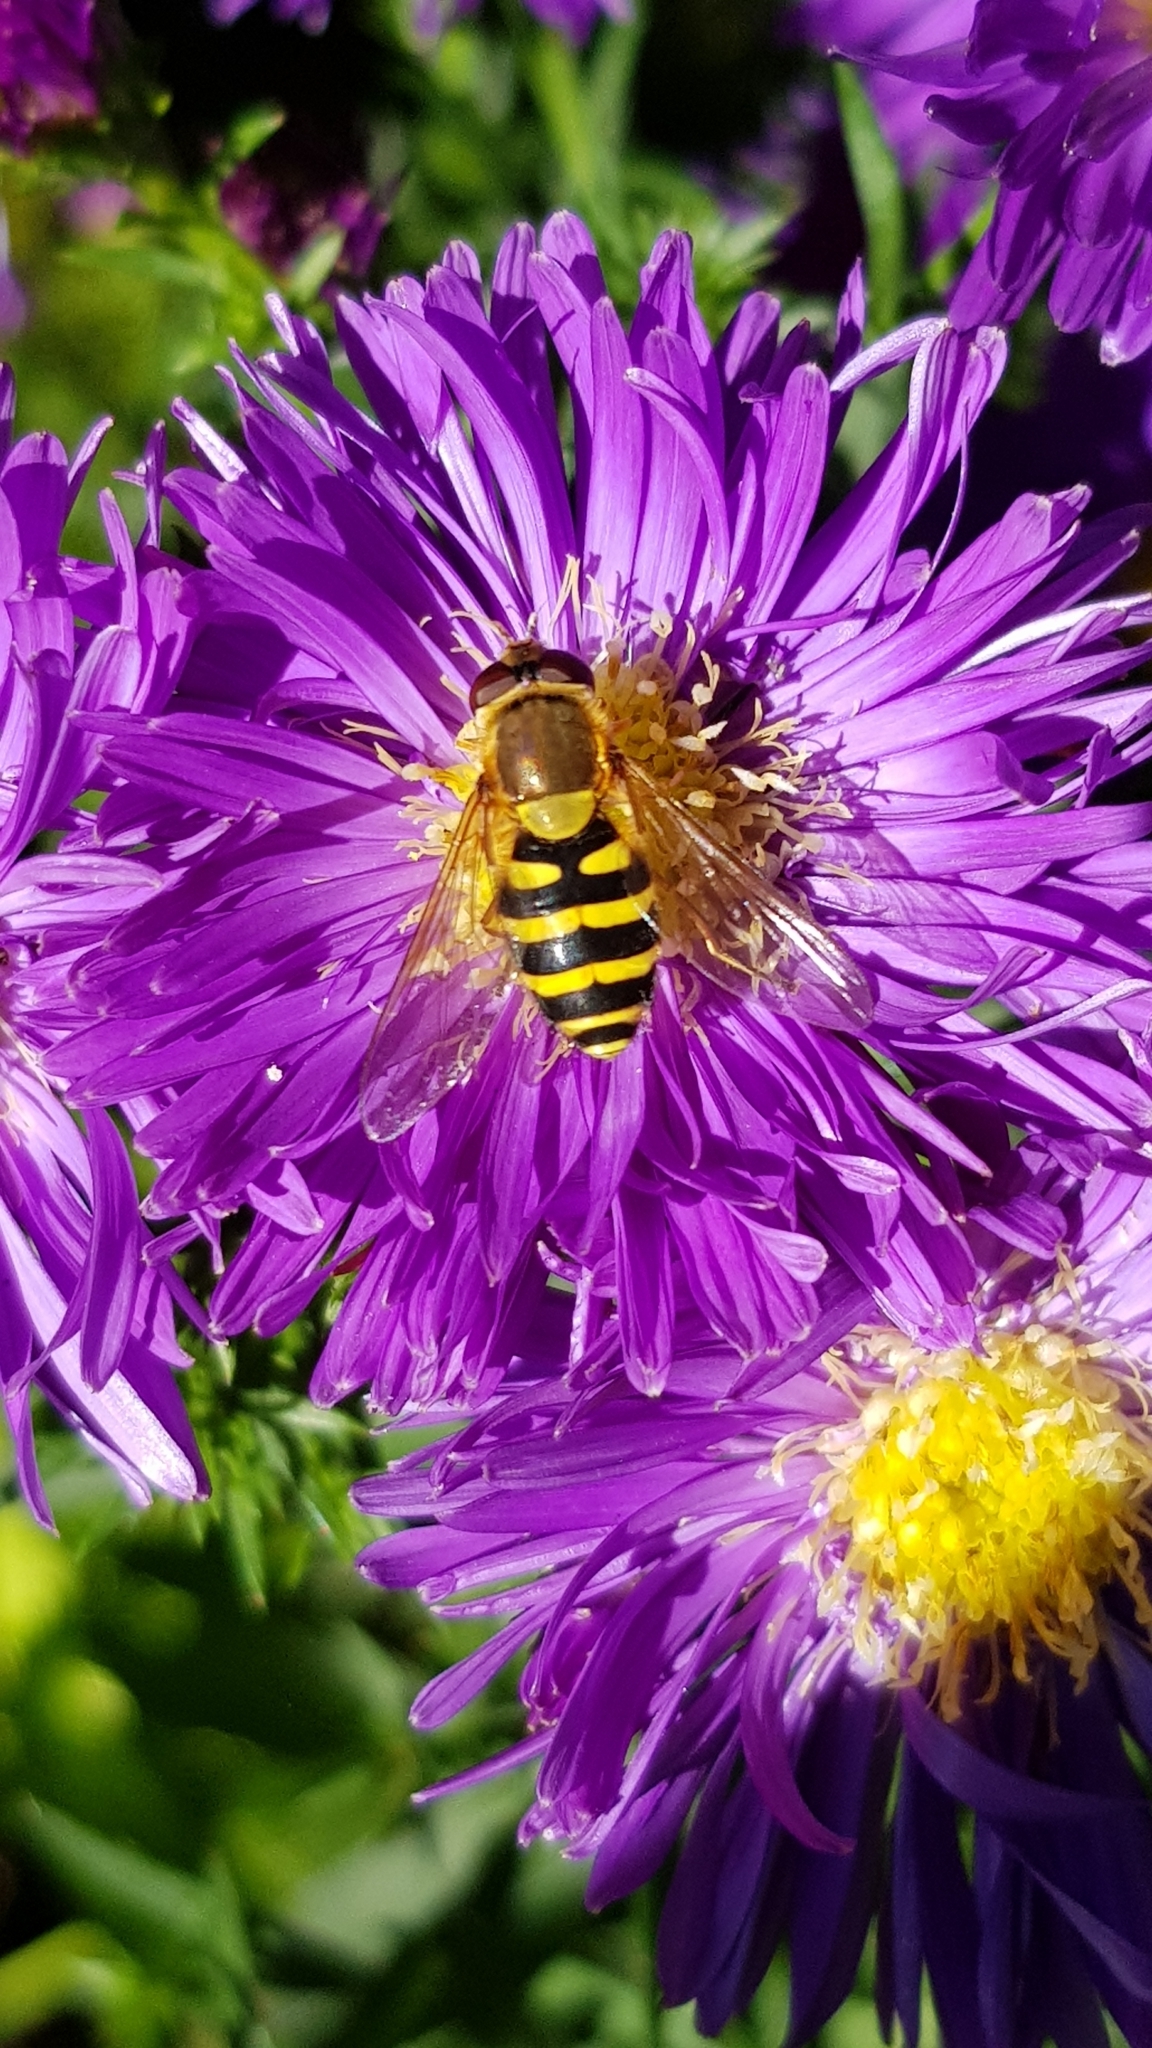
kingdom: Animalia
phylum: Arthropoda
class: Insecta
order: Diptera
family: Syrphidae
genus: Syrphus
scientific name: Syrphus ribesii
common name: Common flower fly
